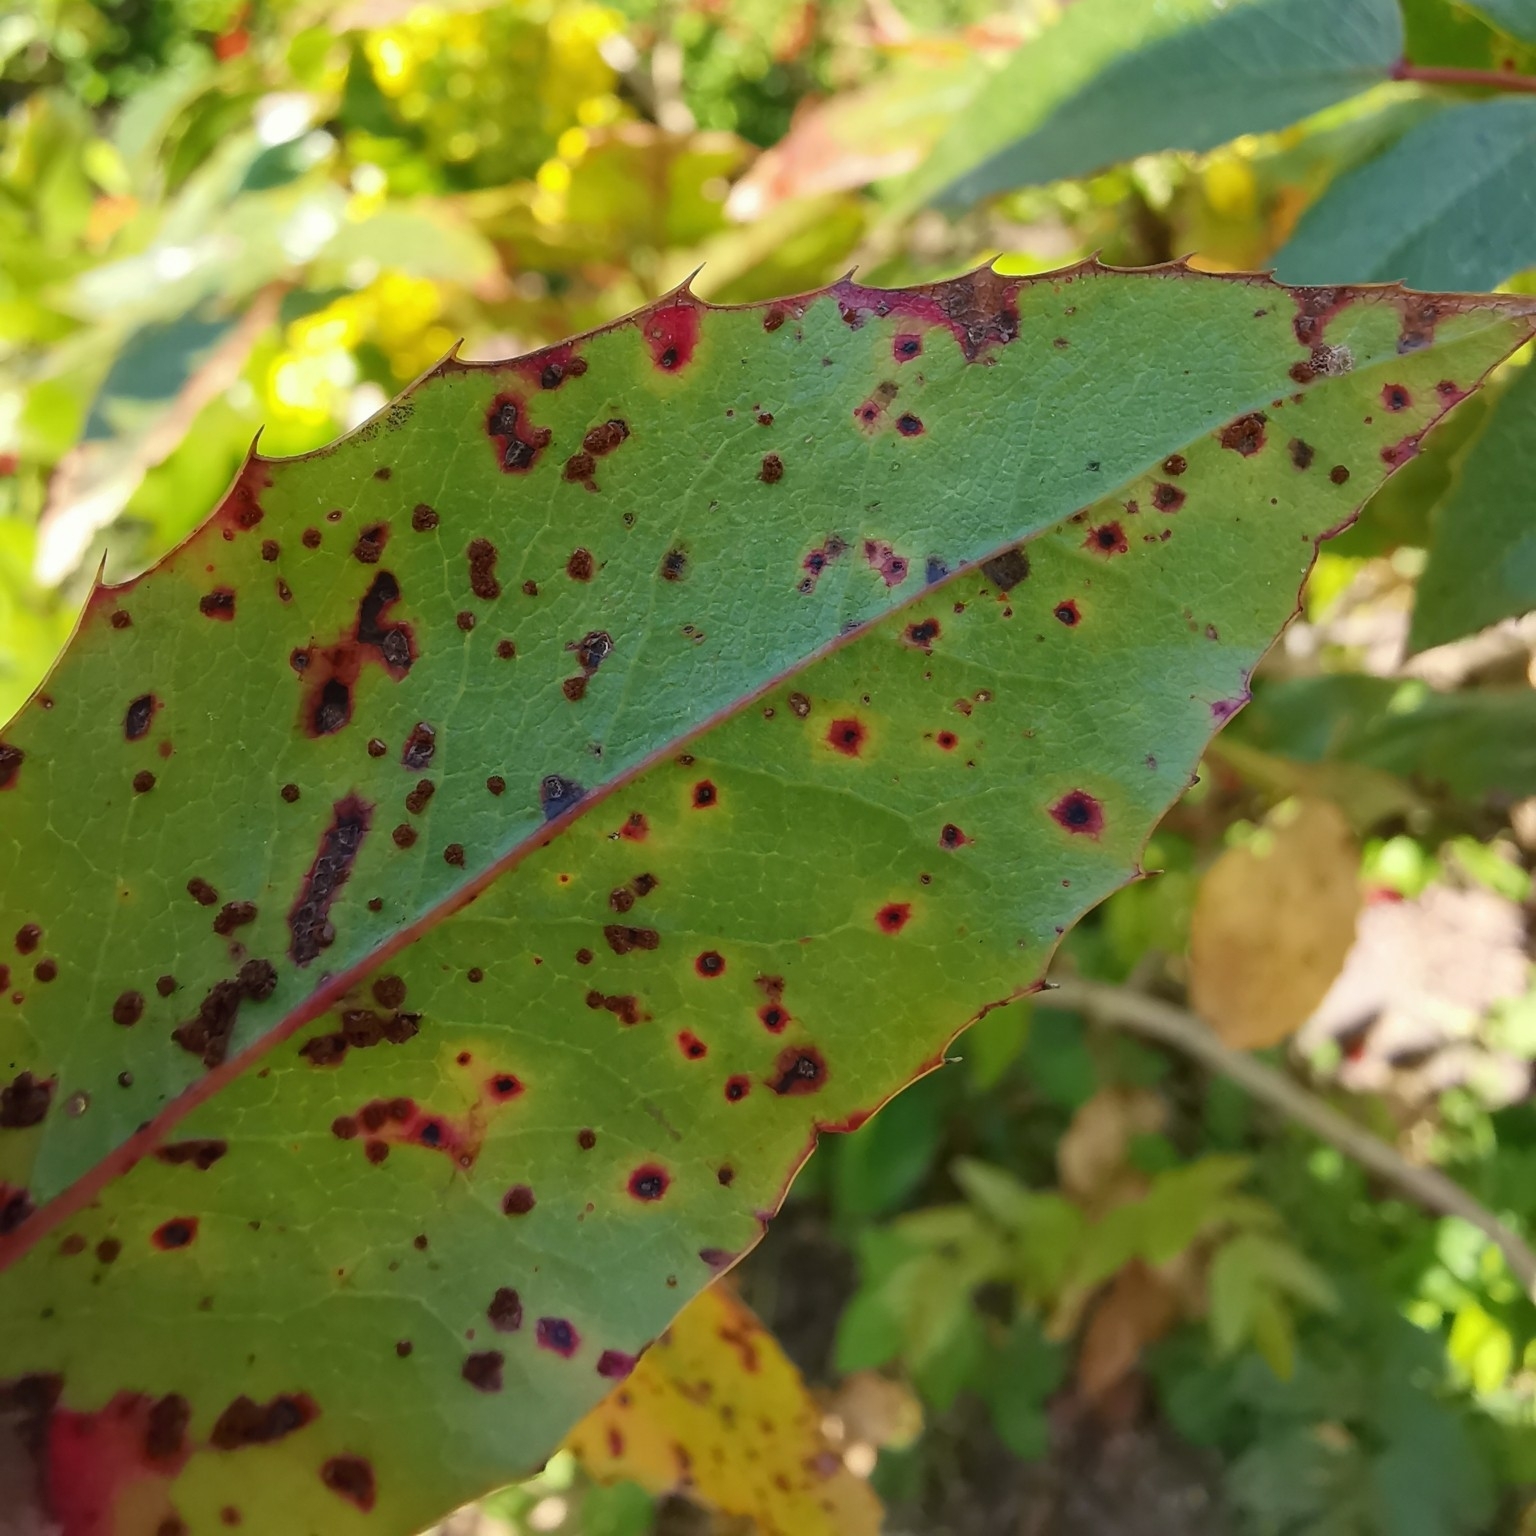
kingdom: Fungi
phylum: Basidiomycota
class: Pucciniomycetes
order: Pucciniales
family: Pucciniaceae
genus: Cumminsiella
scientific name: Cumminsiella mirabilissima
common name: Mahonia rust
